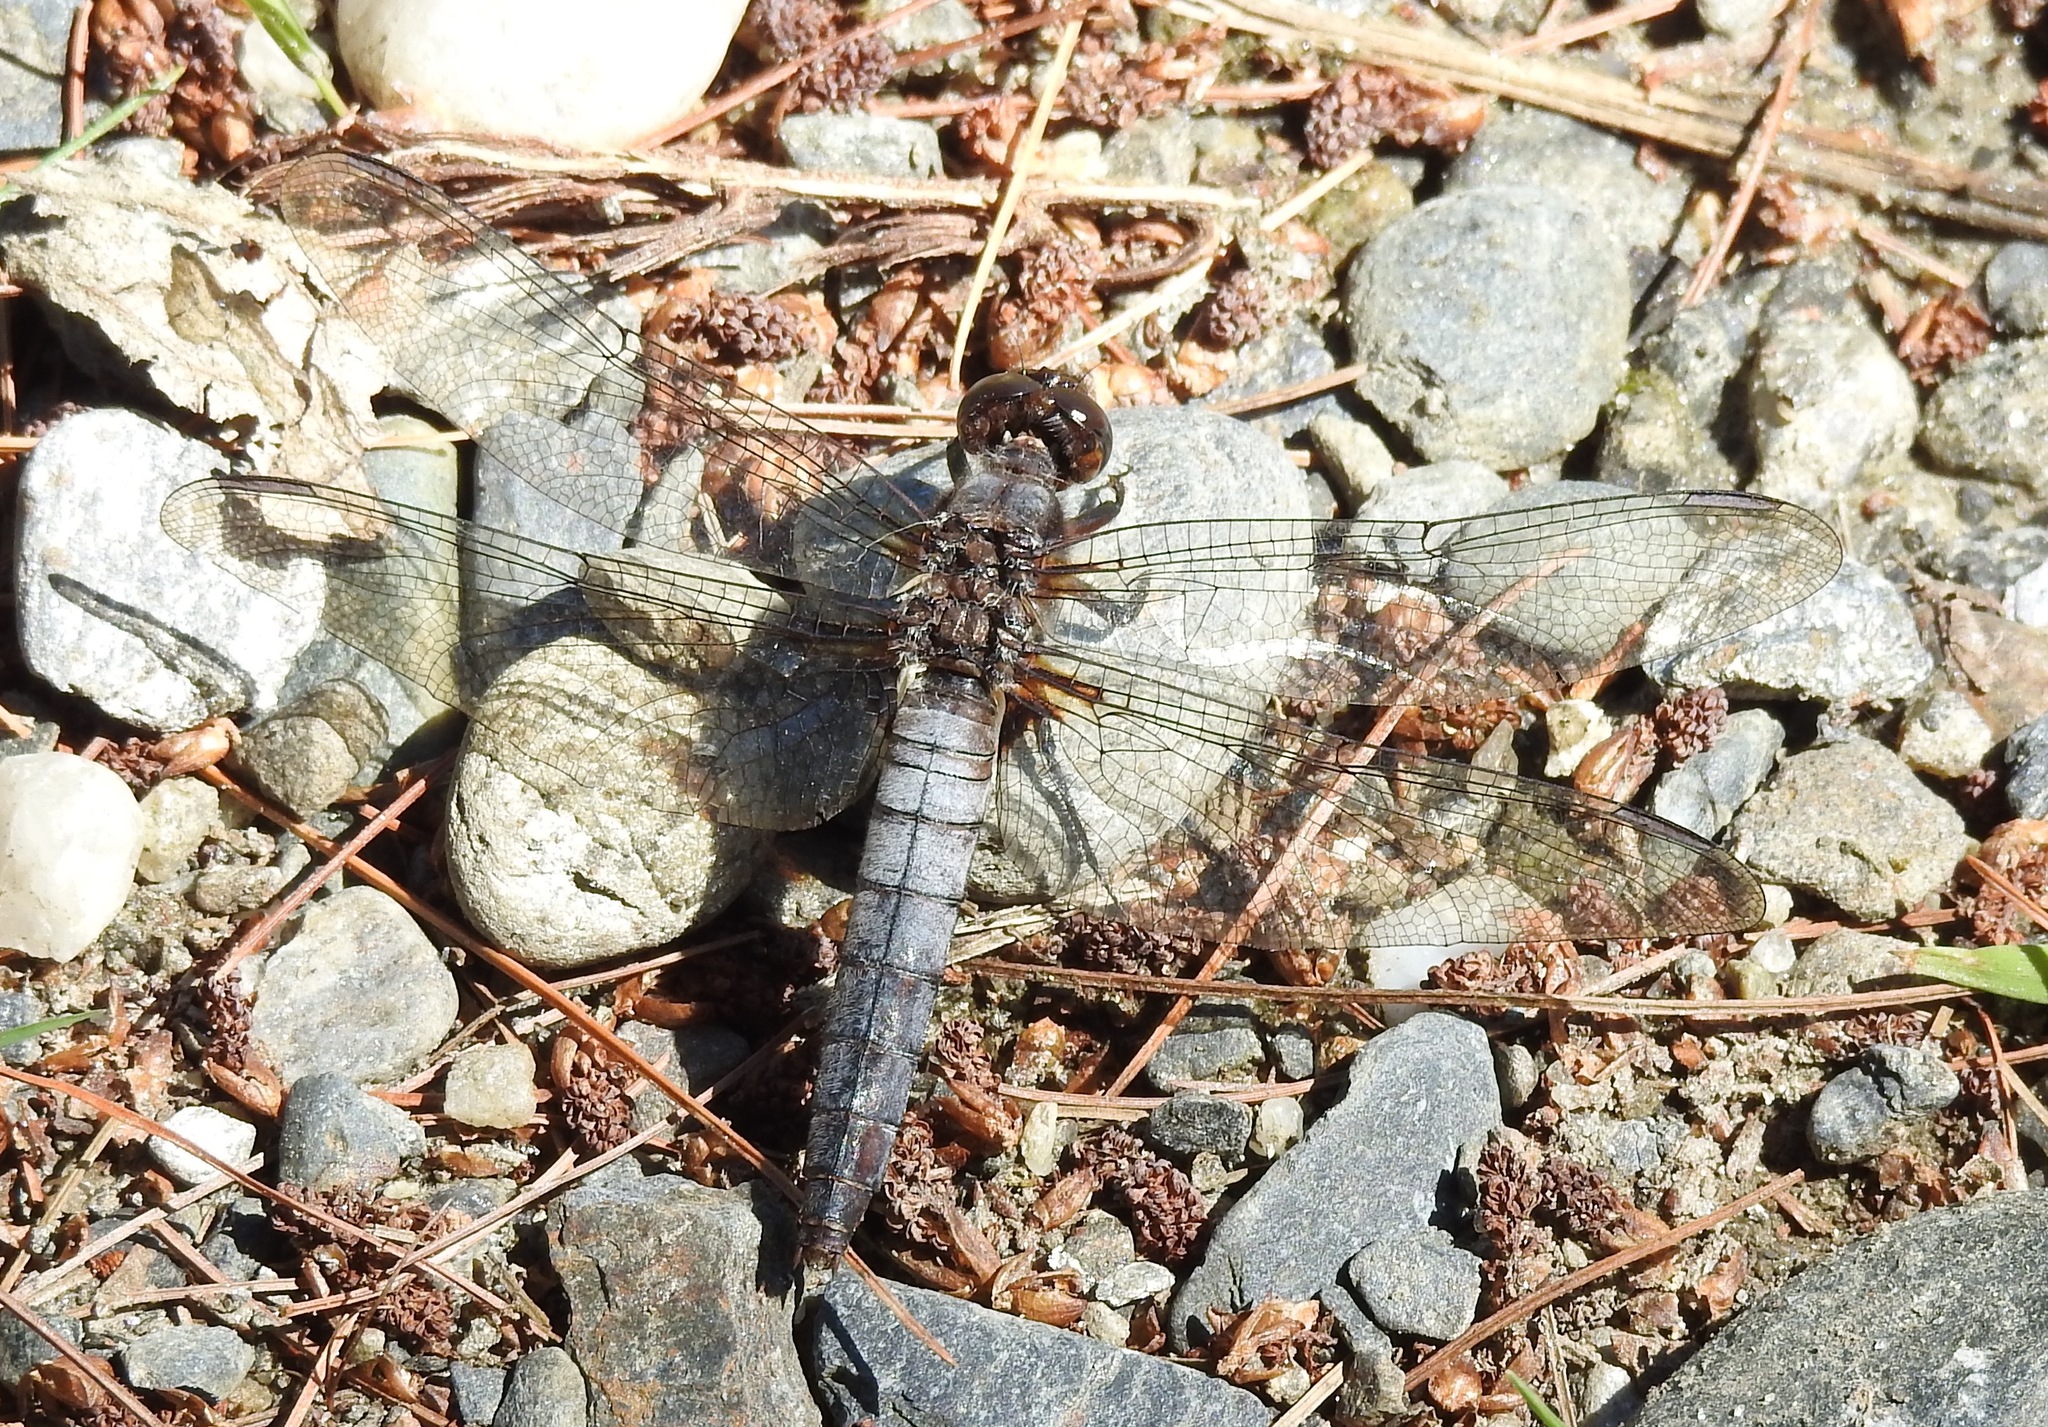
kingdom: Animalia
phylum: Arthropoda
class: Insecta
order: Odonata
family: Libellulidae
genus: Ladona
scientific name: Ladona julia
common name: Chalk-fronted corporal
